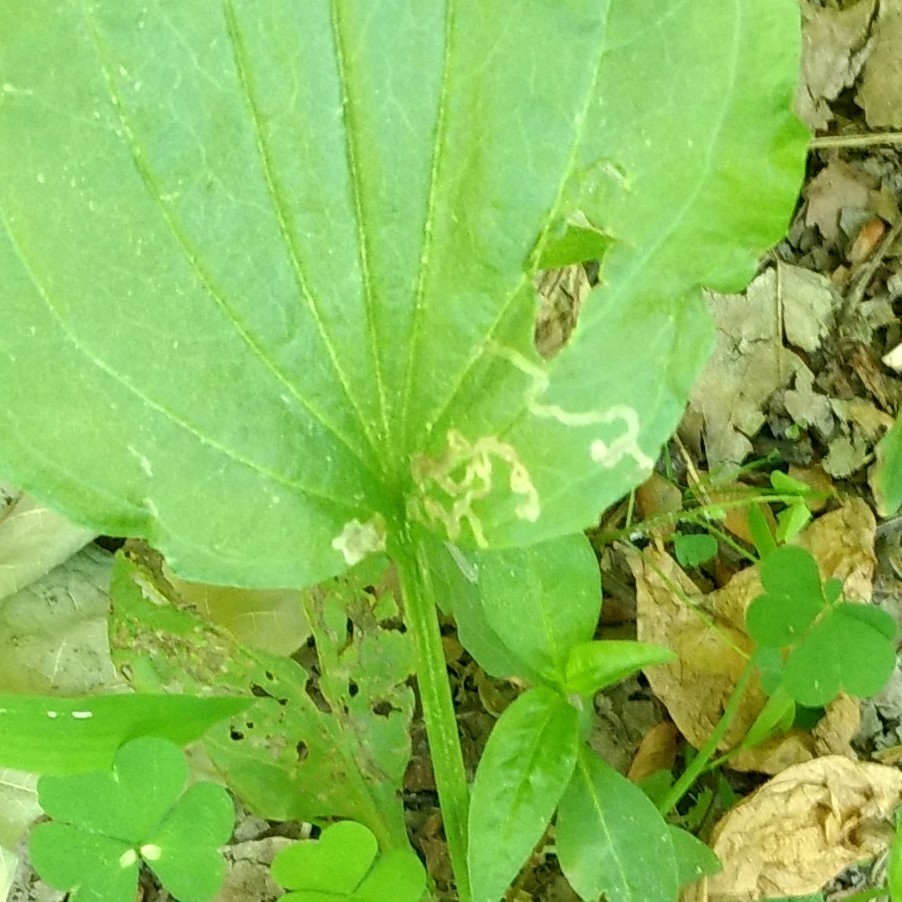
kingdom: Animalia
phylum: Arthropoda
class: Insecta
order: Coleoptera
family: Chrysomelidae
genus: Dibolia
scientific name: Dibolia borealis
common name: Northern plantain flea beetle
